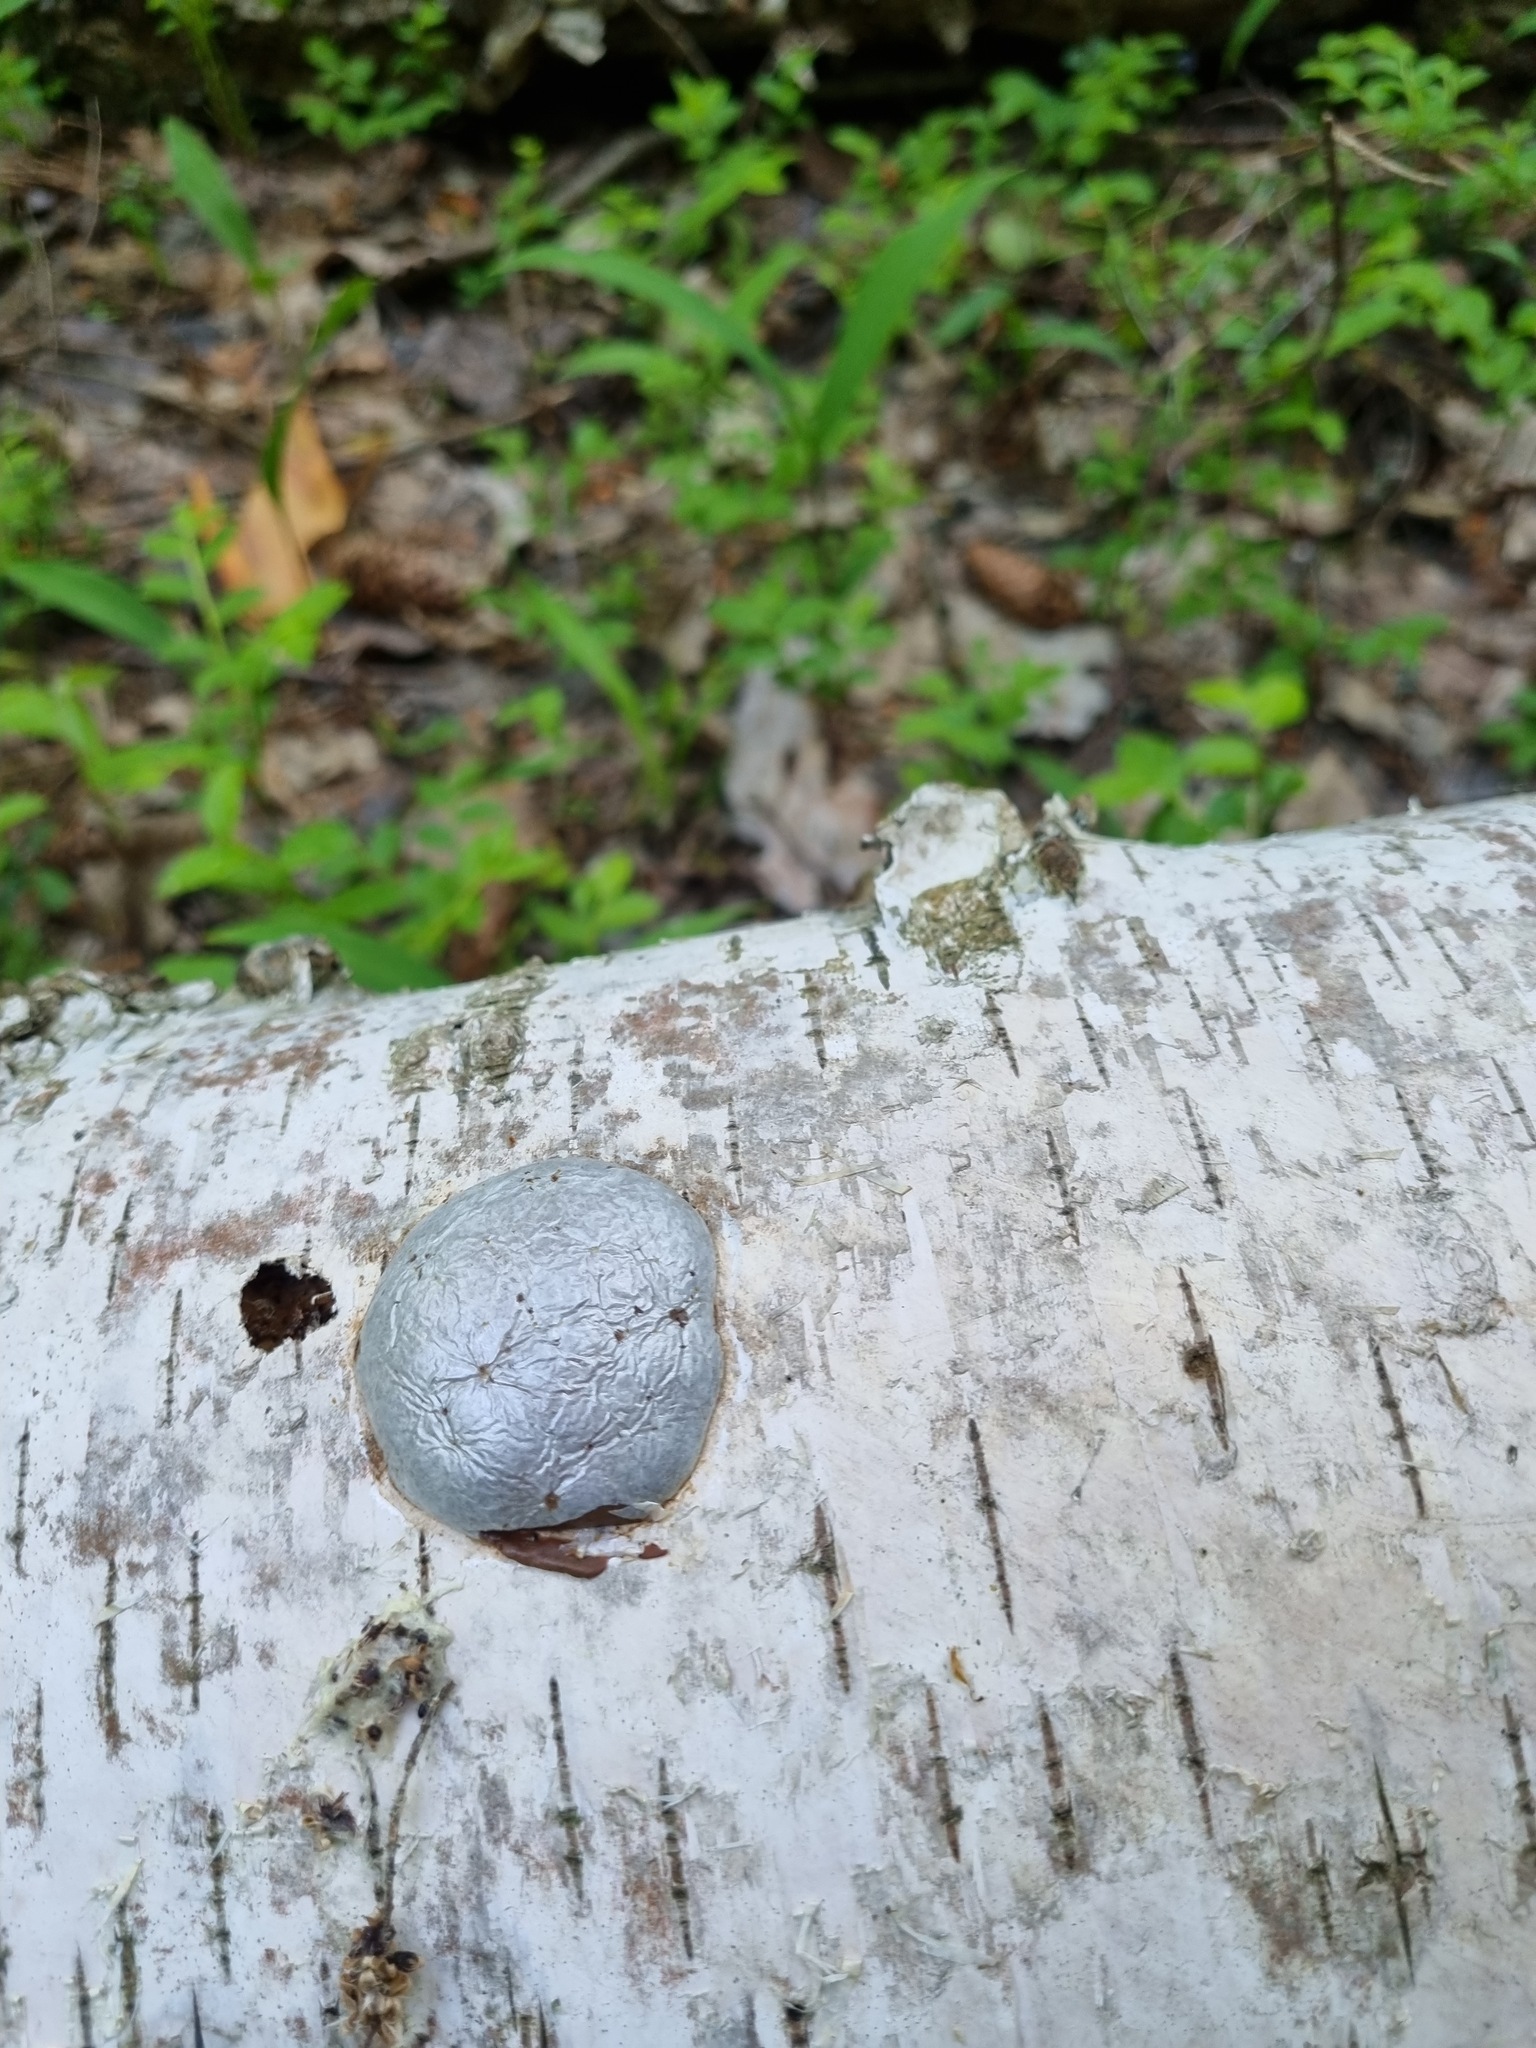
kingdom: Protozoa
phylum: Mycetozoa
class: Myxomycetes
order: Cribrariales
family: Tubiferaceae
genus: Reticularia
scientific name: Reticularia lycoperdon
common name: False puffball
